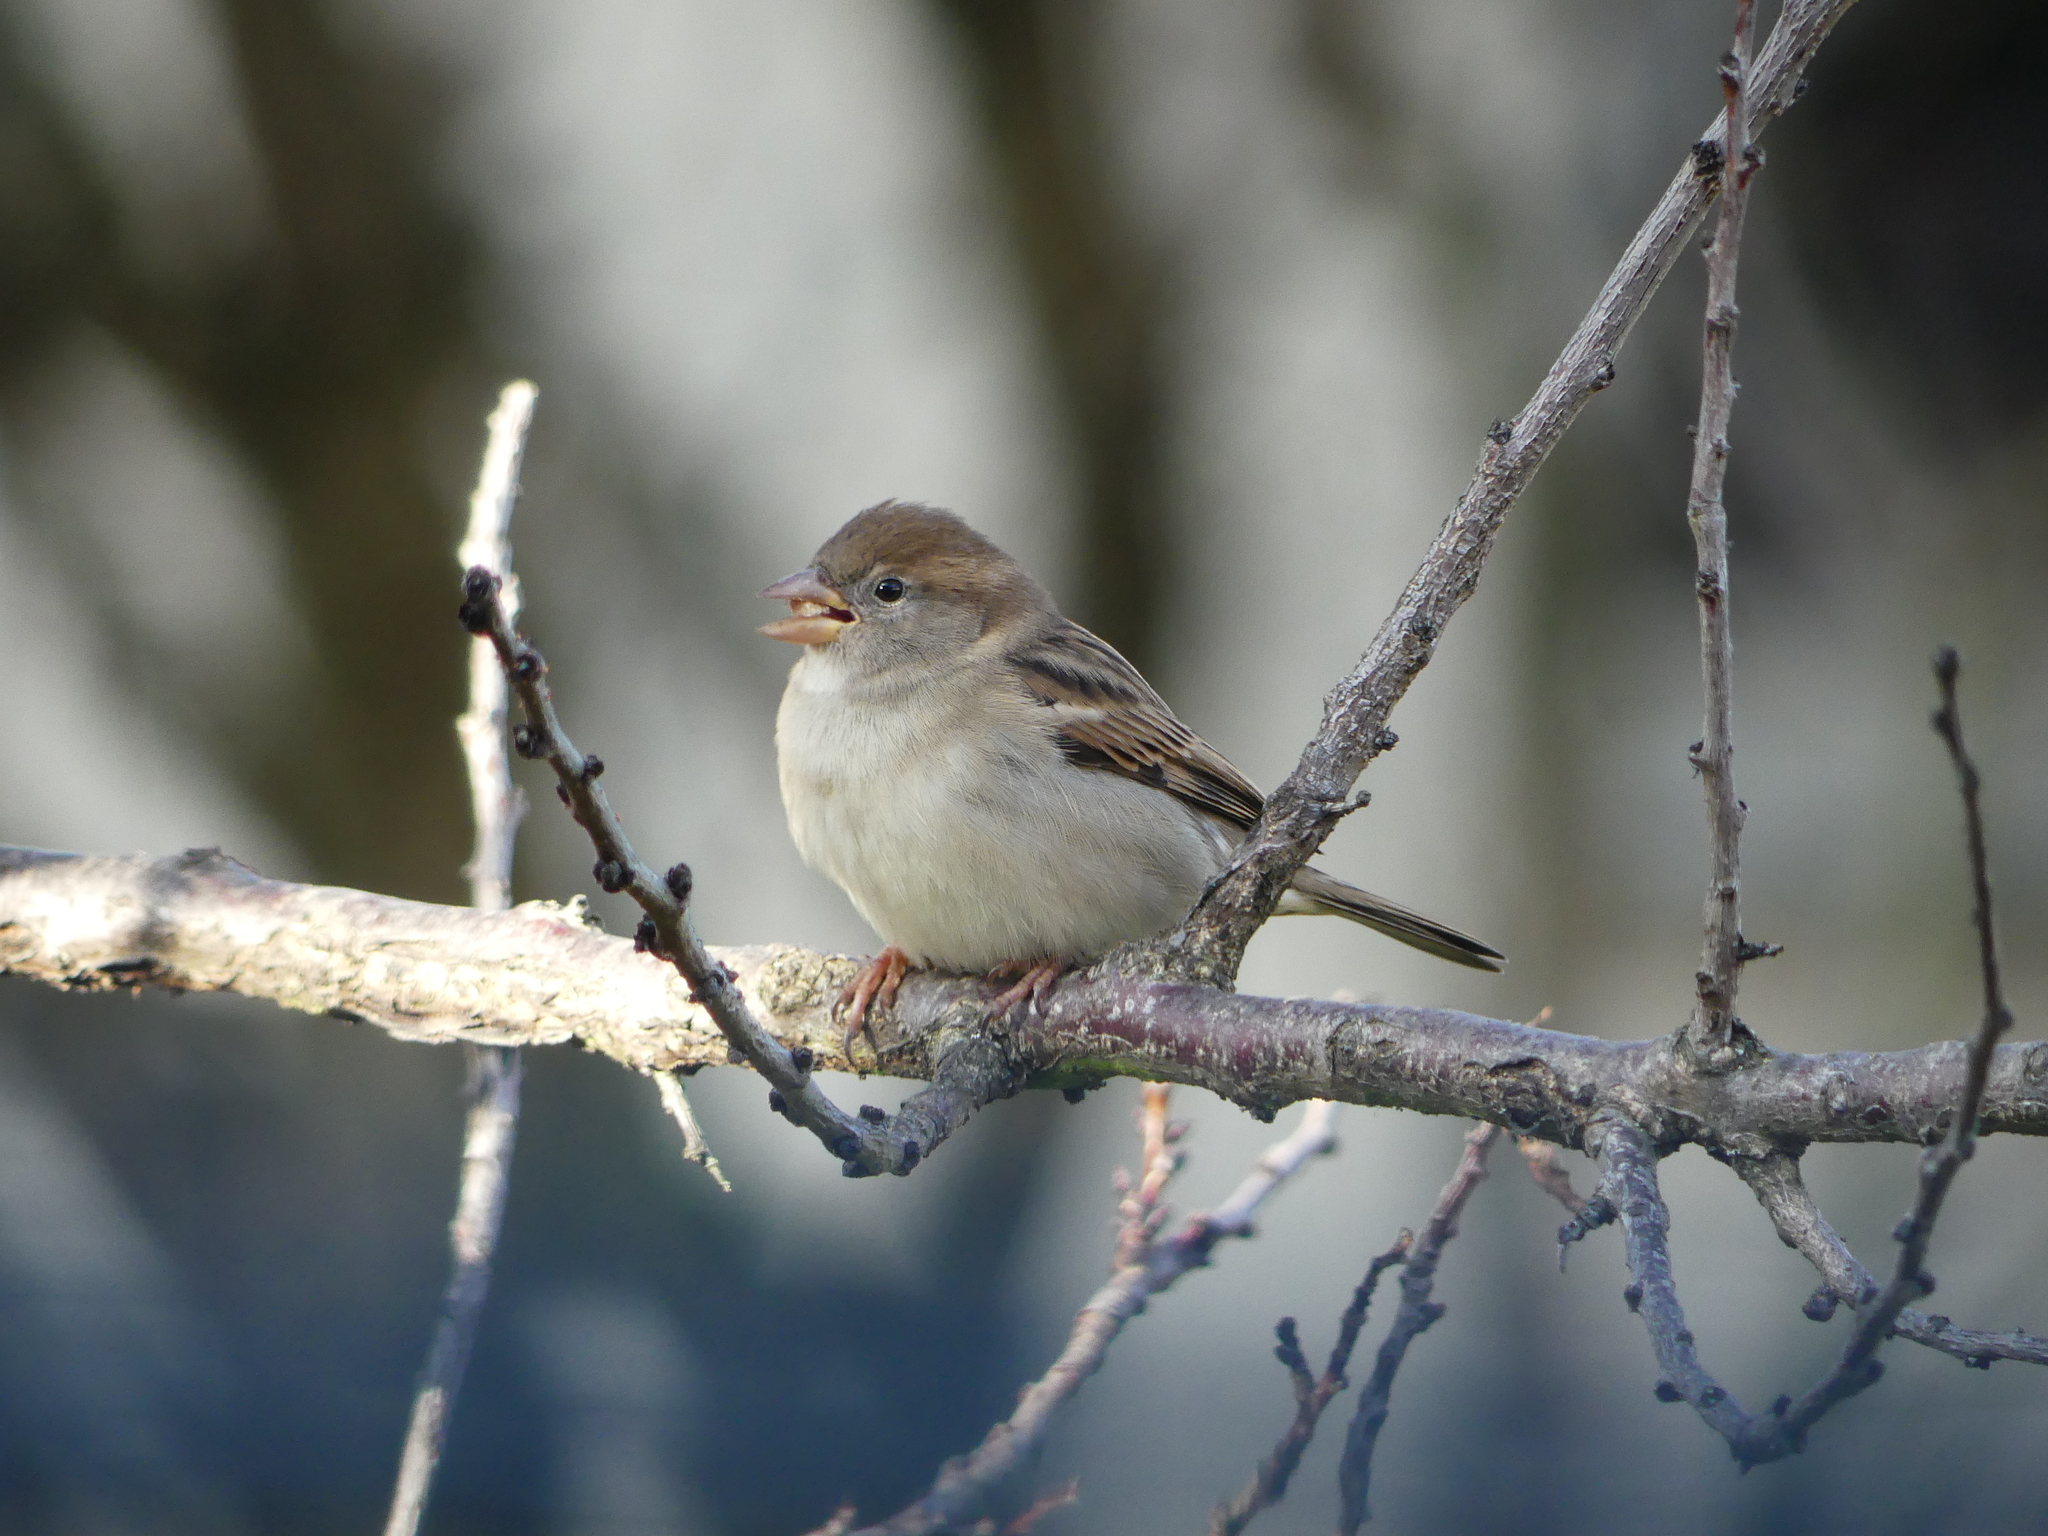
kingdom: Animalia
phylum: Chordata
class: Aves
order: Passeriformes
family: Passeridae
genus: Passer
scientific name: Passer domesticus
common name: House sparrow
